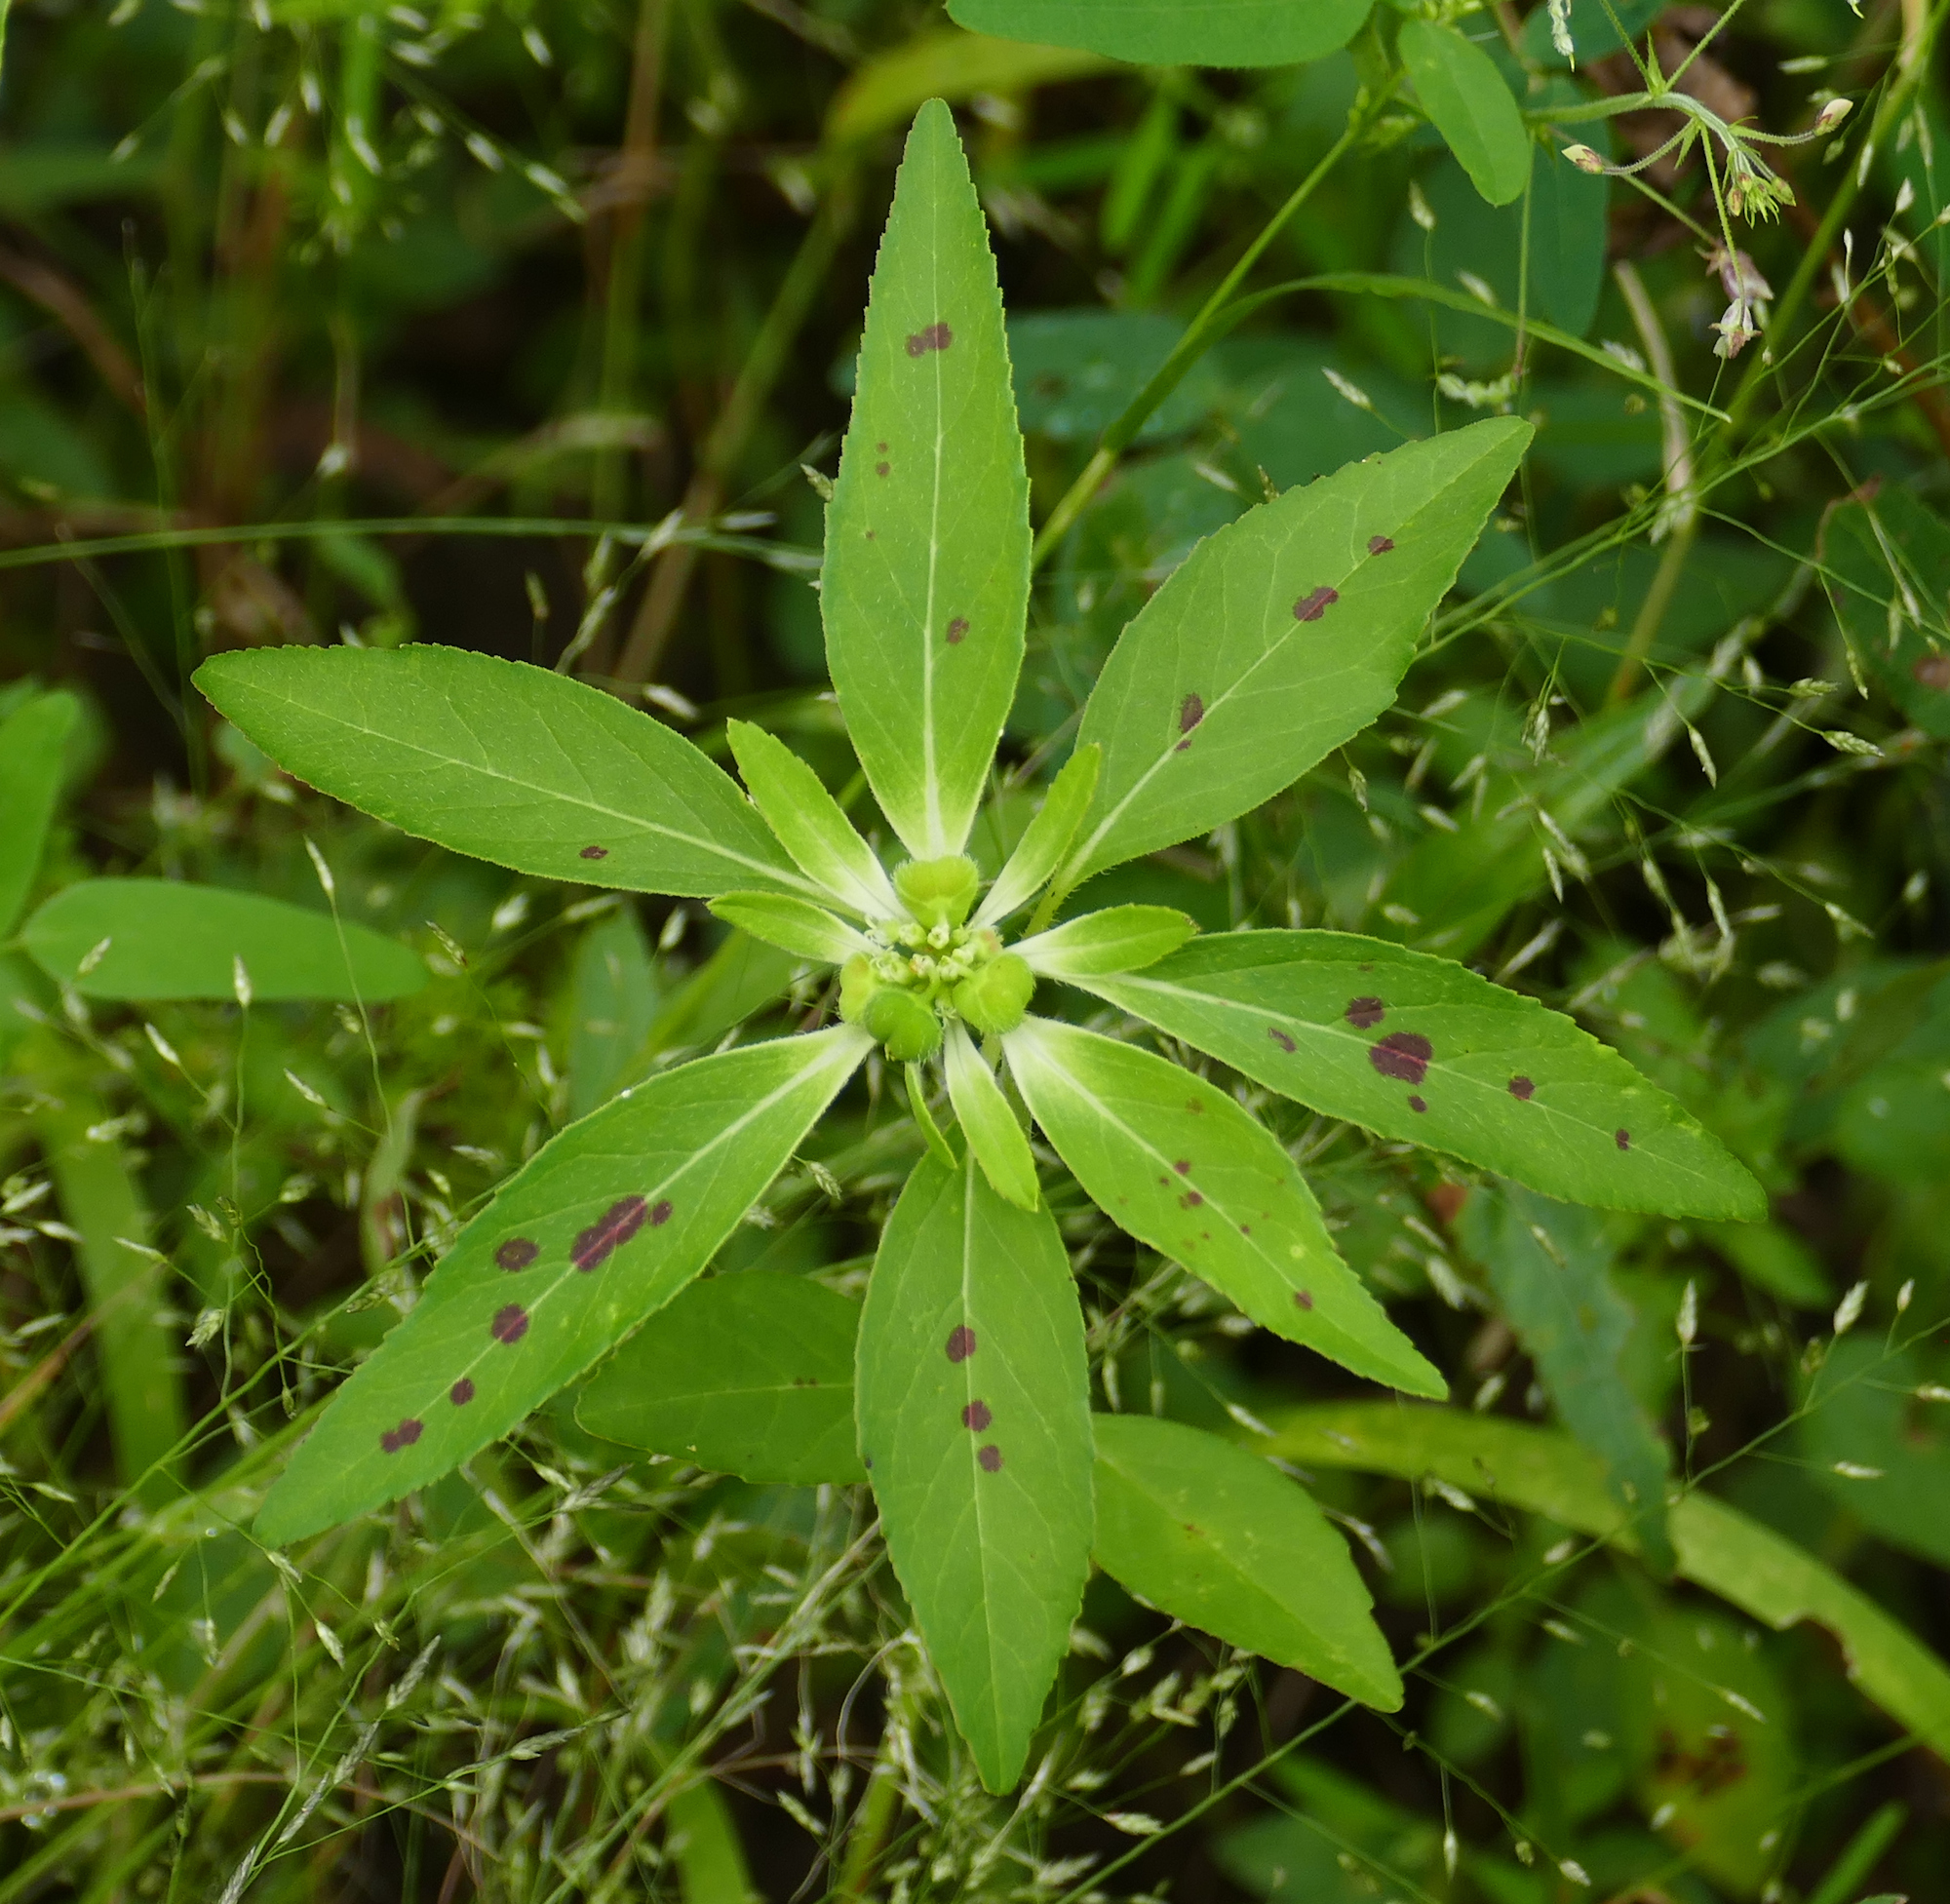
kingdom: Plantae
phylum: Tracheophyta
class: Magnoliopsida
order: Malpighiales
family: Euphorbiaceae
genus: Euphorbia
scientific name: Euphorbia davidii
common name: David's spurge
